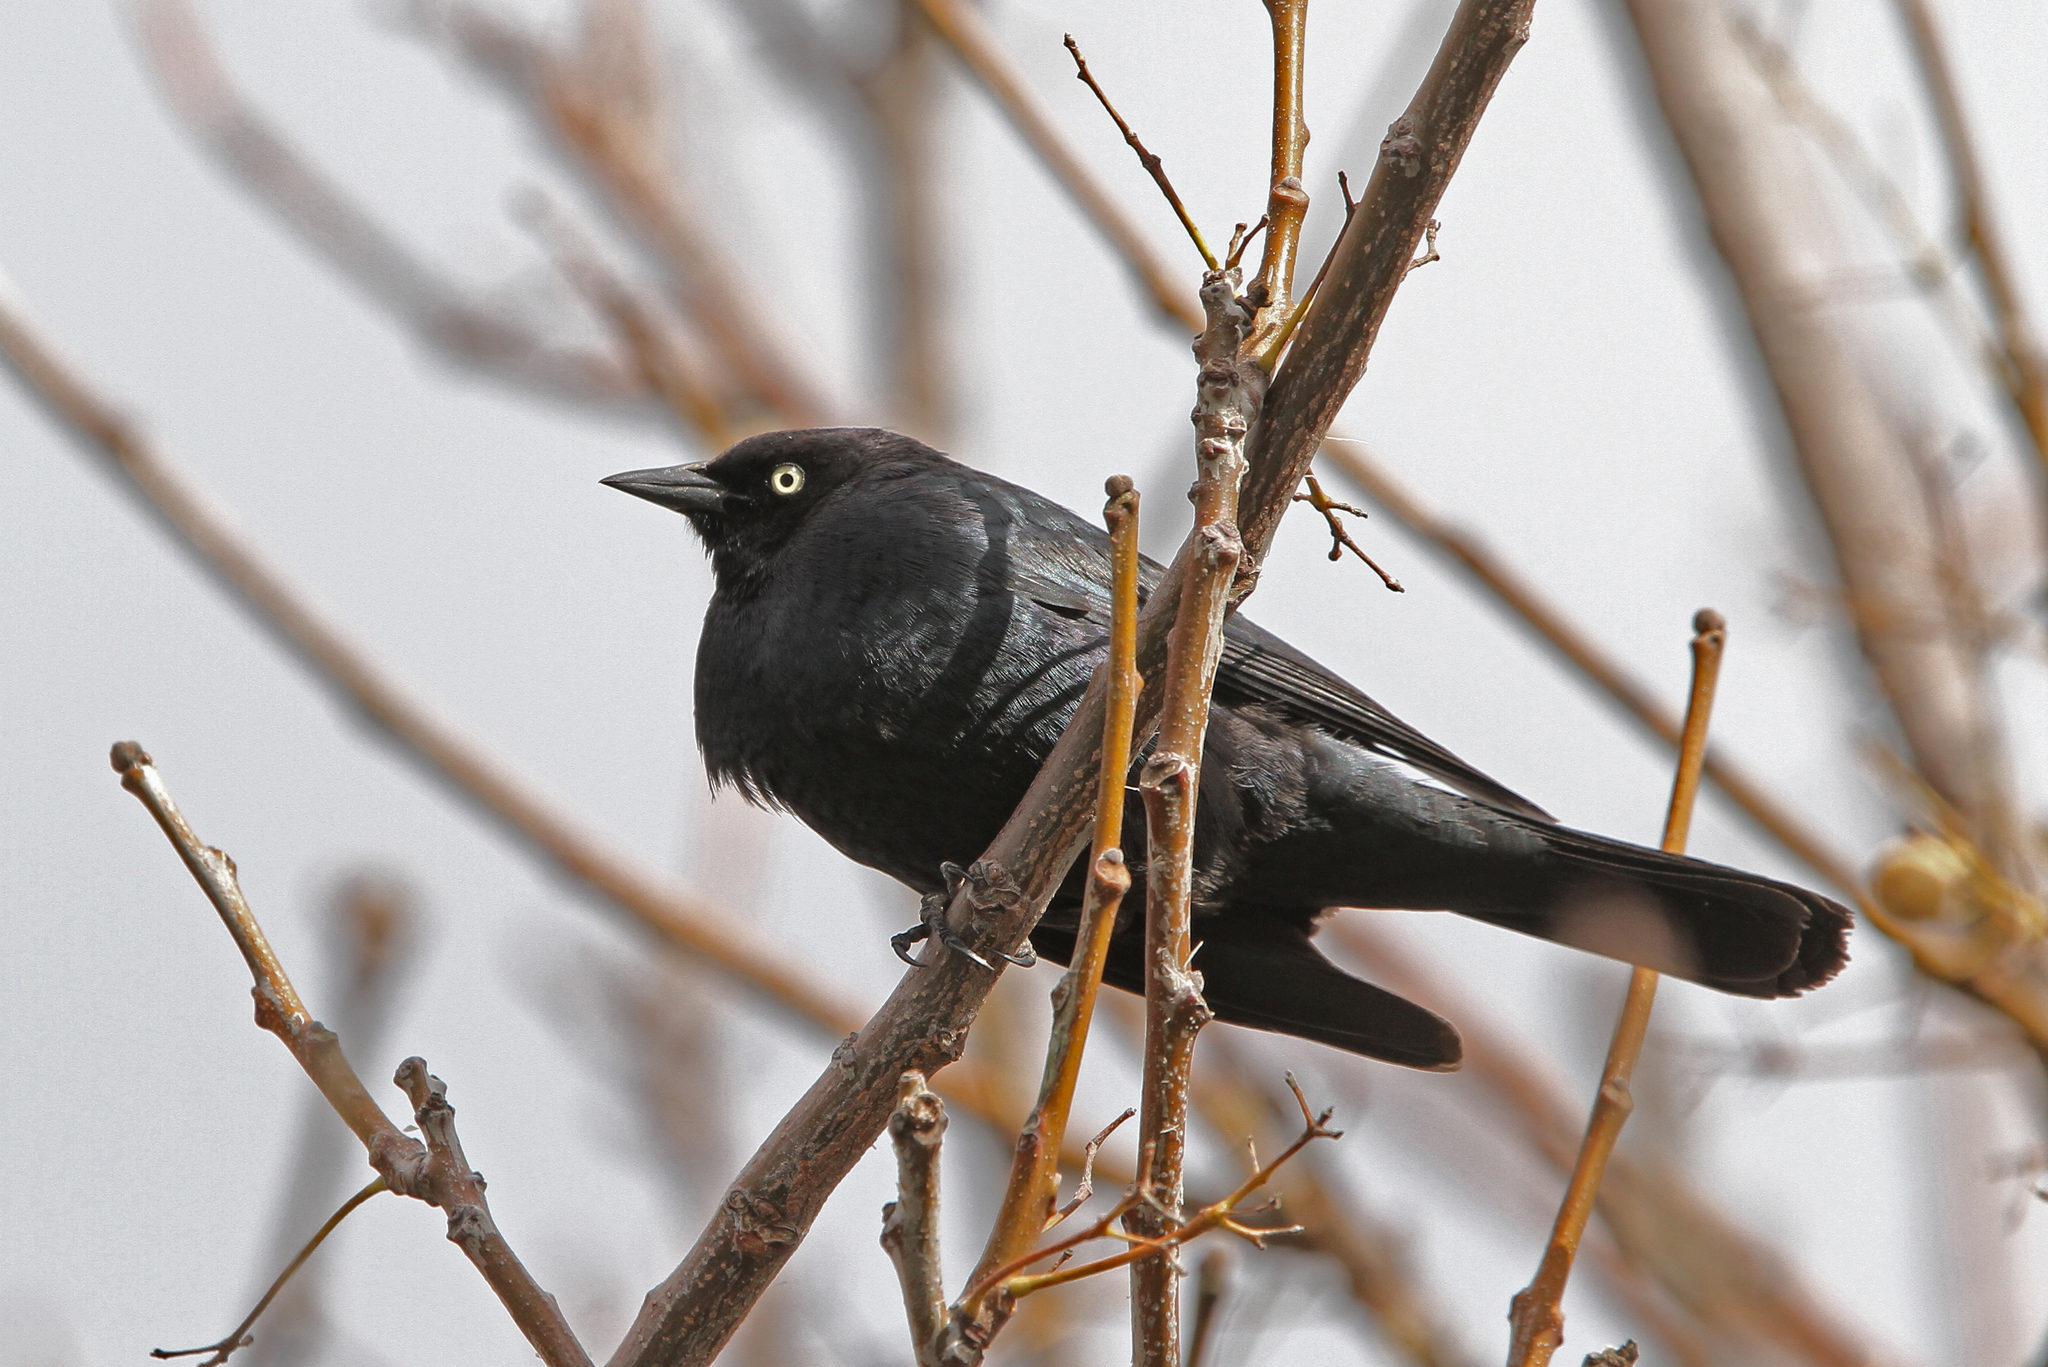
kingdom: Animalia
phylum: Chordata
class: Aves
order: Passeriformes
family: Icteridae
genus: Euphagus
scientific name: Euphagus cyanocephalus
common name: Brewer's blackbird
